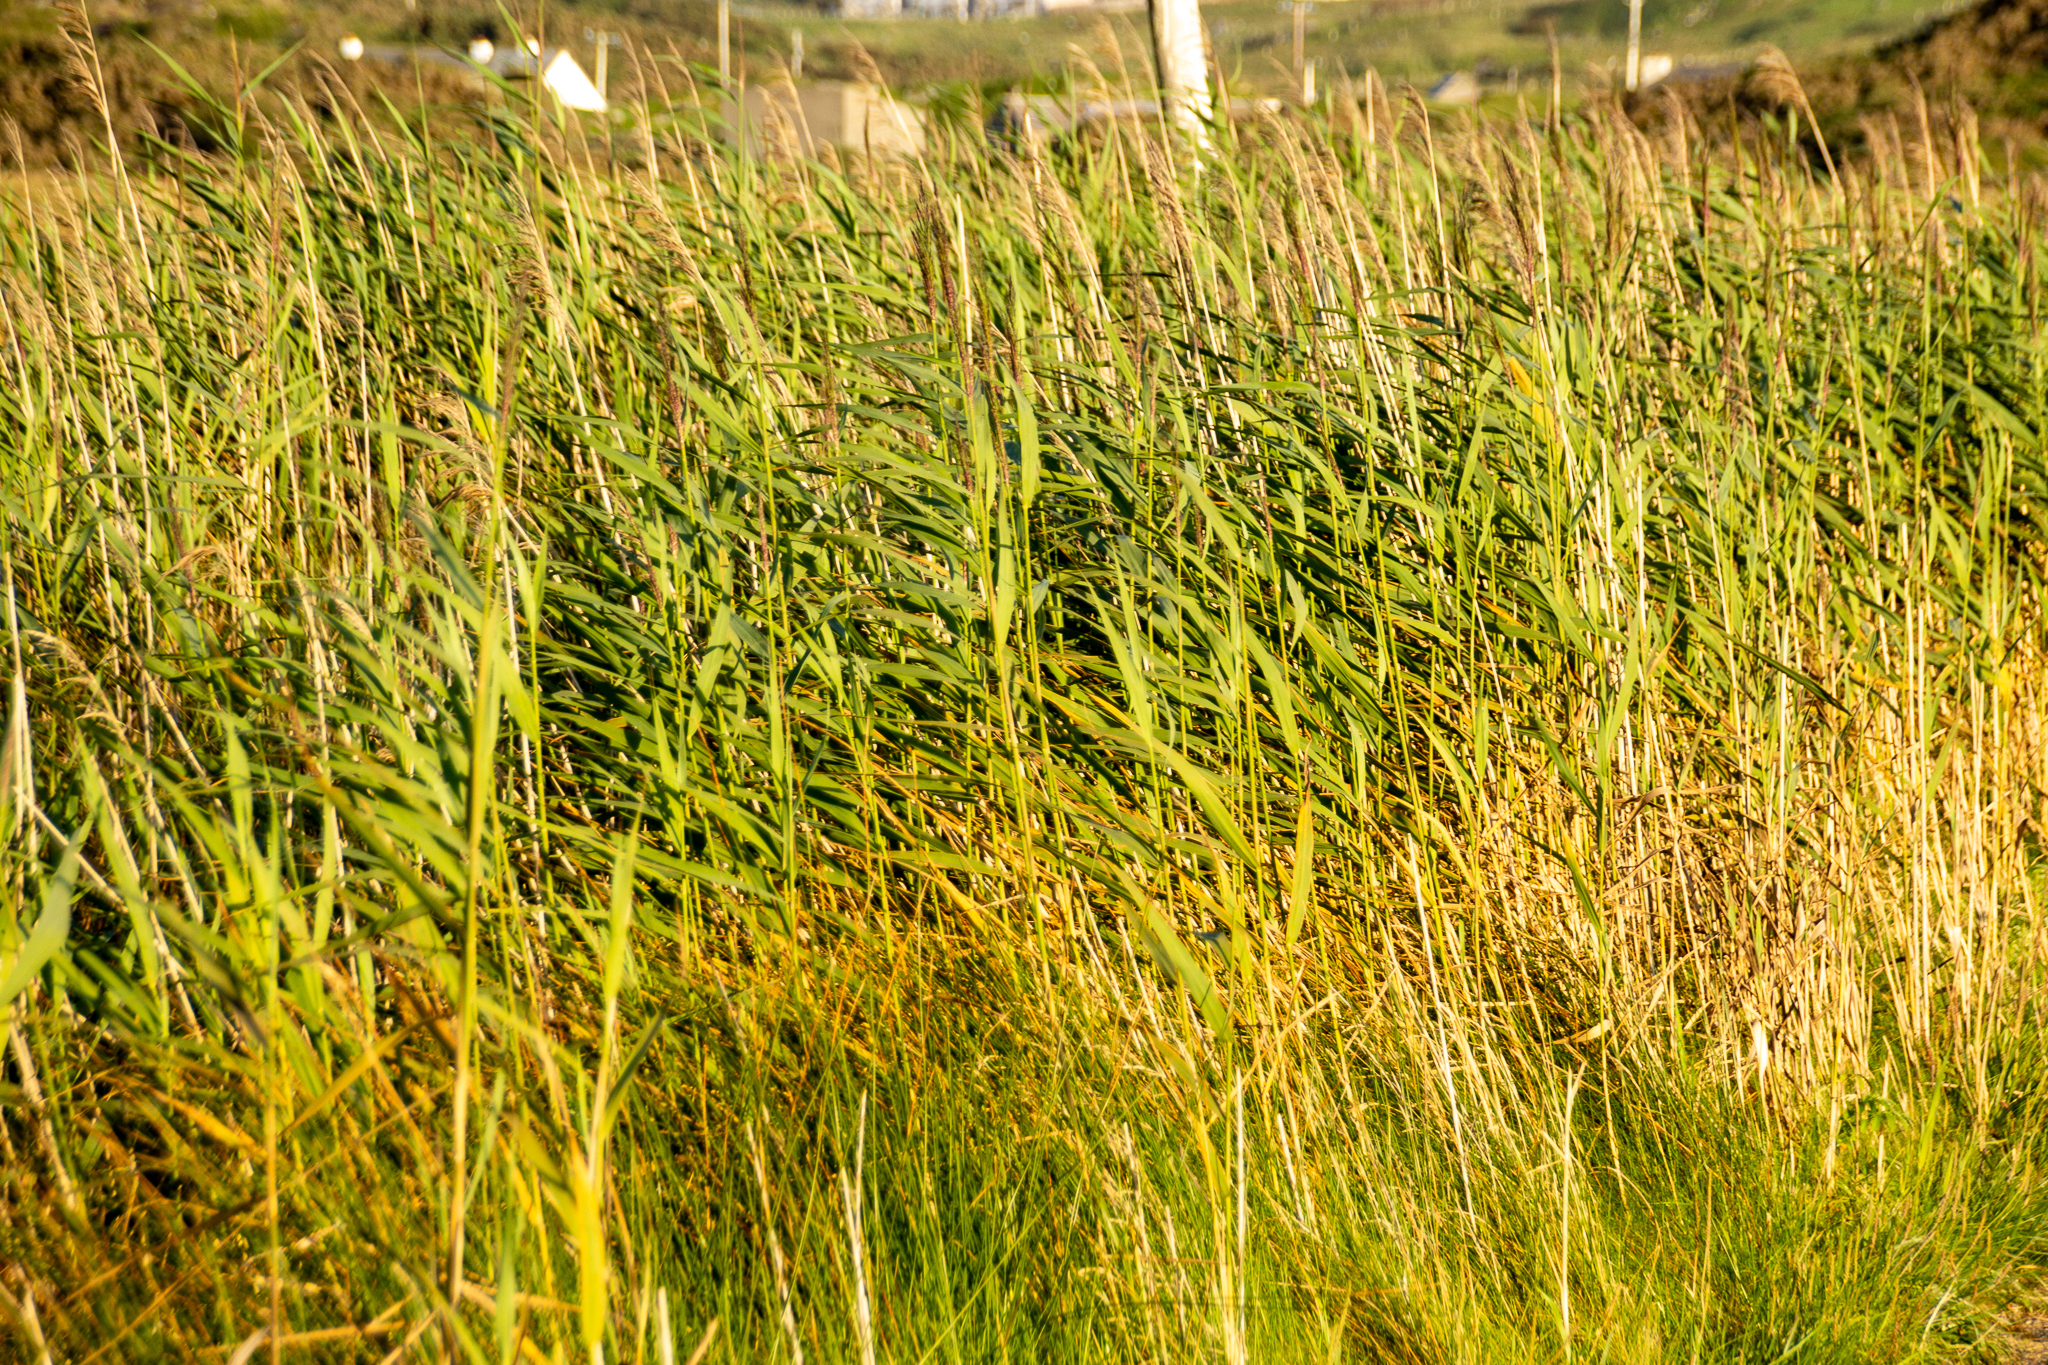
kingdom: Plantae
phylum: Tracheophyta
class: Liliopsida
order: Poales
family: Poaceae
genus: Phragmites
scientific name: Phragmites australis
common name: Common reed
